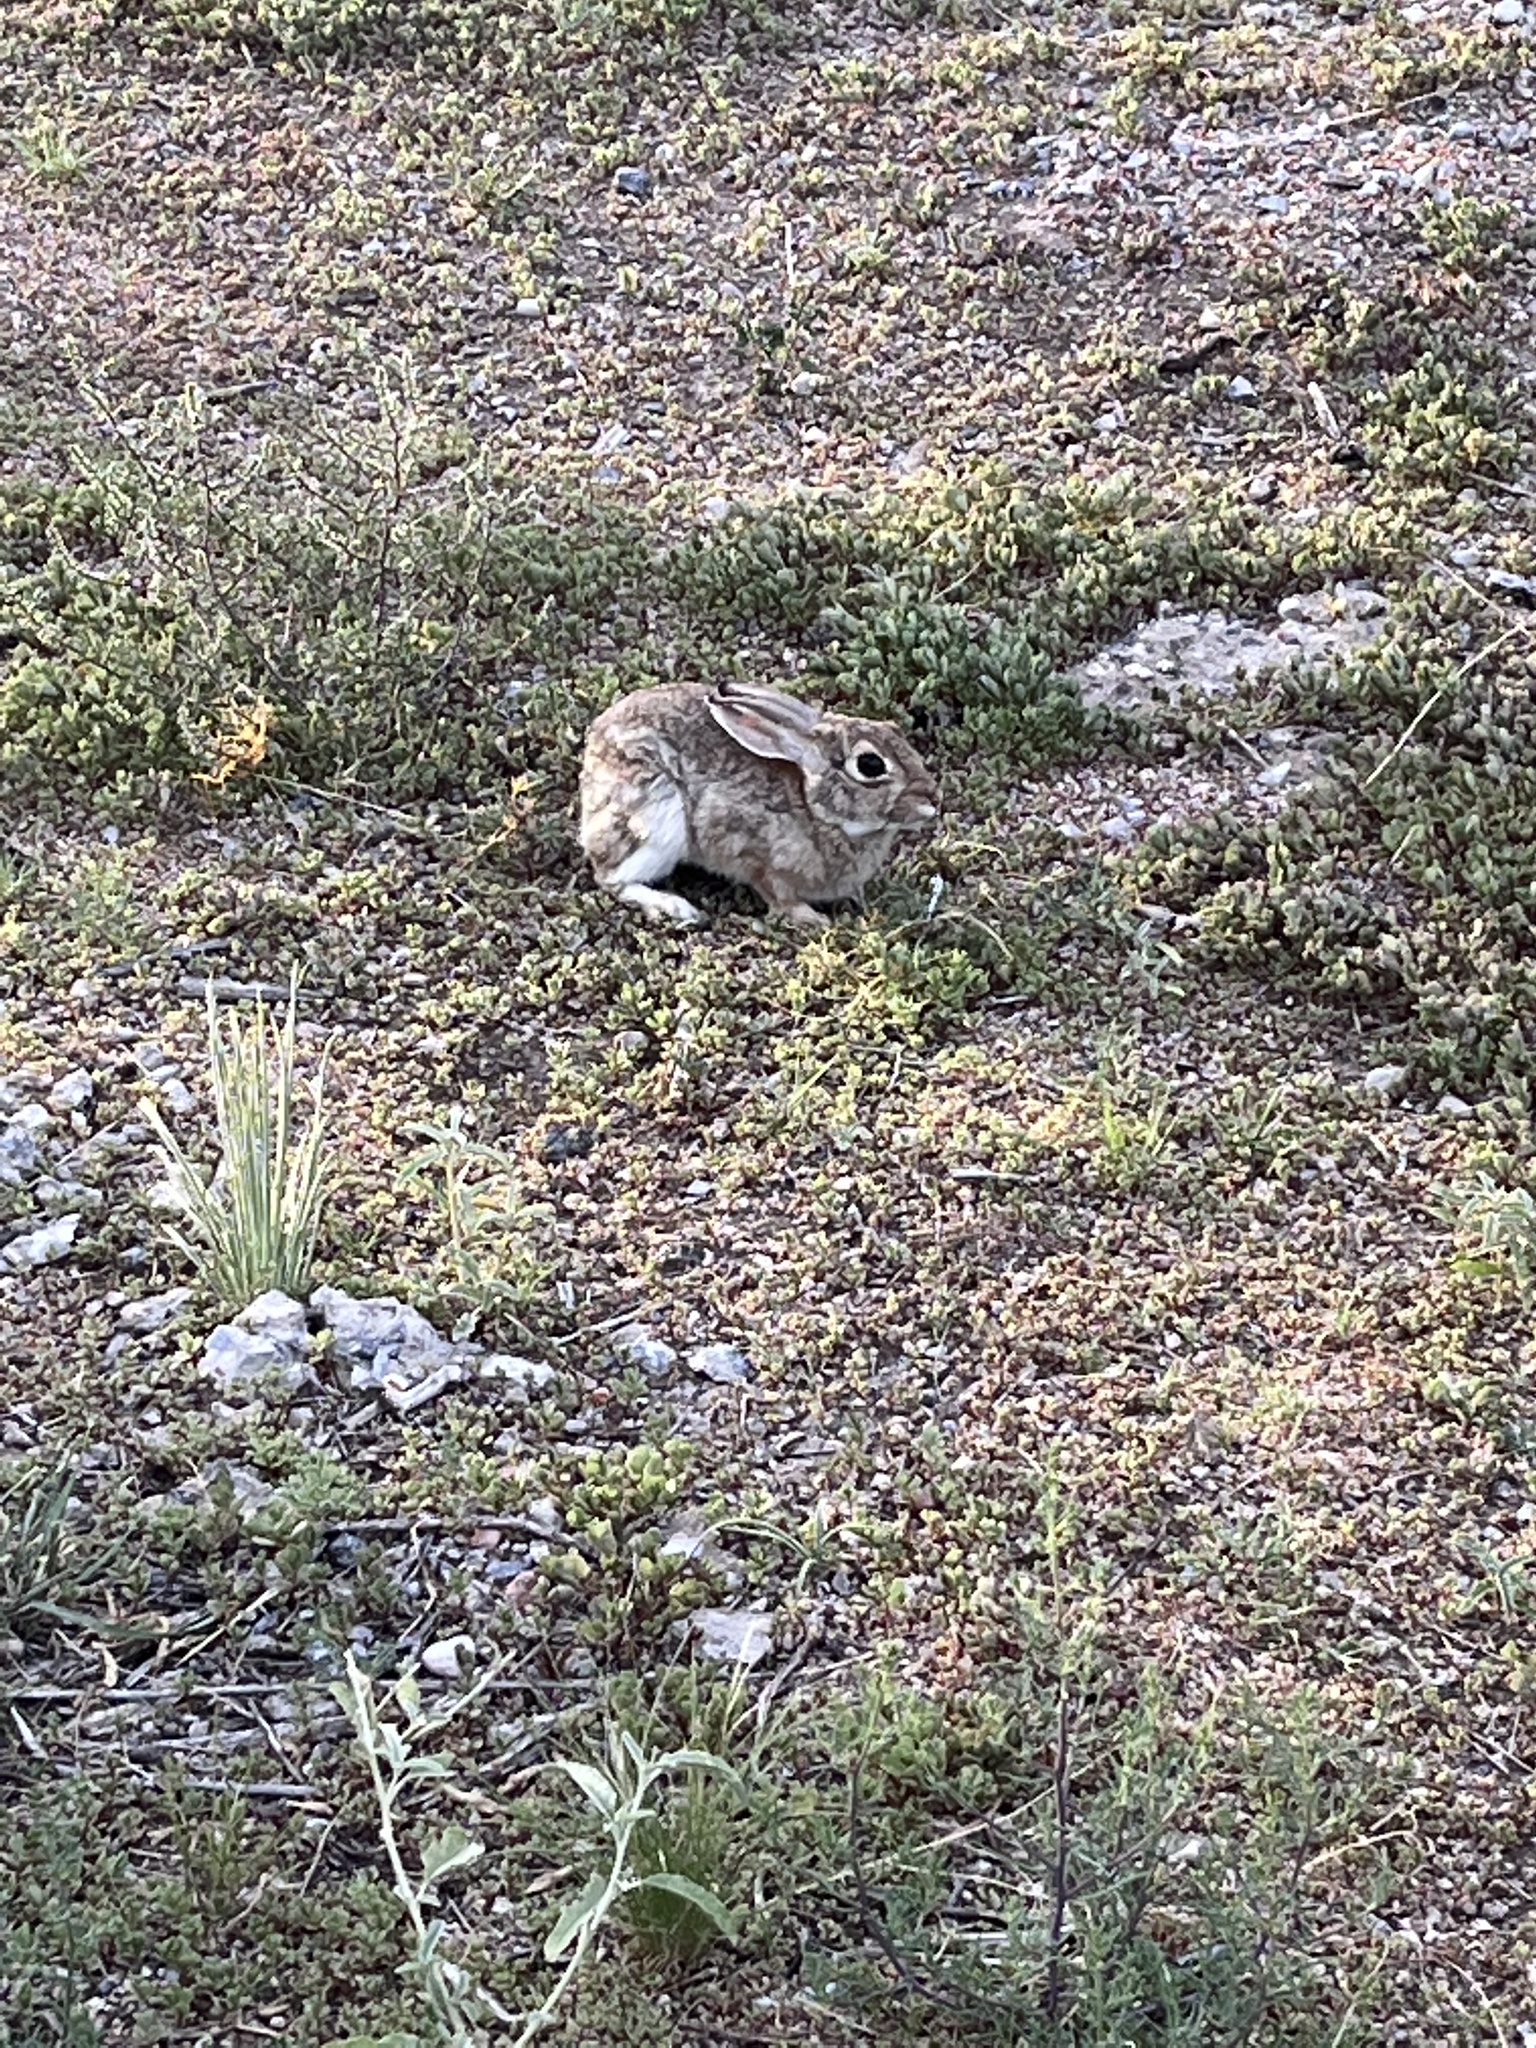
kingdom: Animalia
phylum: Chordata
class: Mammalia
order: Lagomorpha
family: Leporidae
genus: Sylvilagus
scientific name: Sylvilagus audubonii
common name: Desert cottontail
